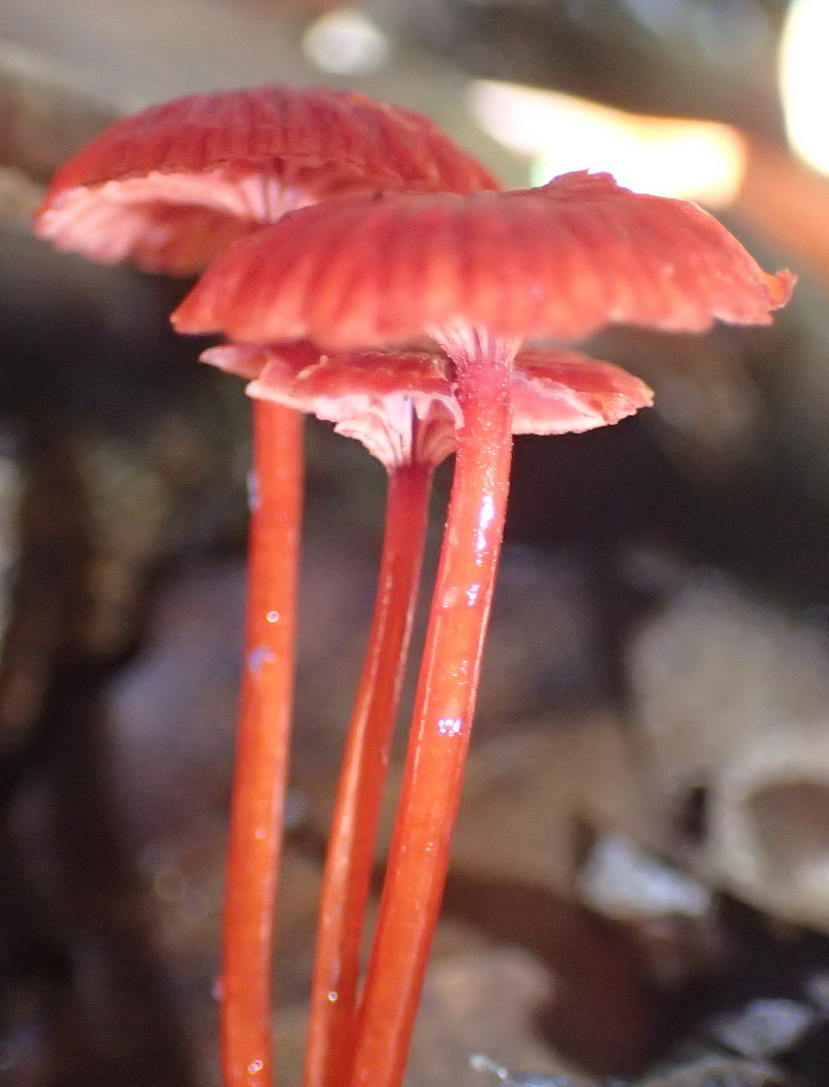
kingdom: Fungi
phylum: Basidiomycota
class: Agaricomycetes
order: Agaricales
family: Mycenaceae
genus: Cruentomycena
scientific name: Cruentomycena viscidocruenta
